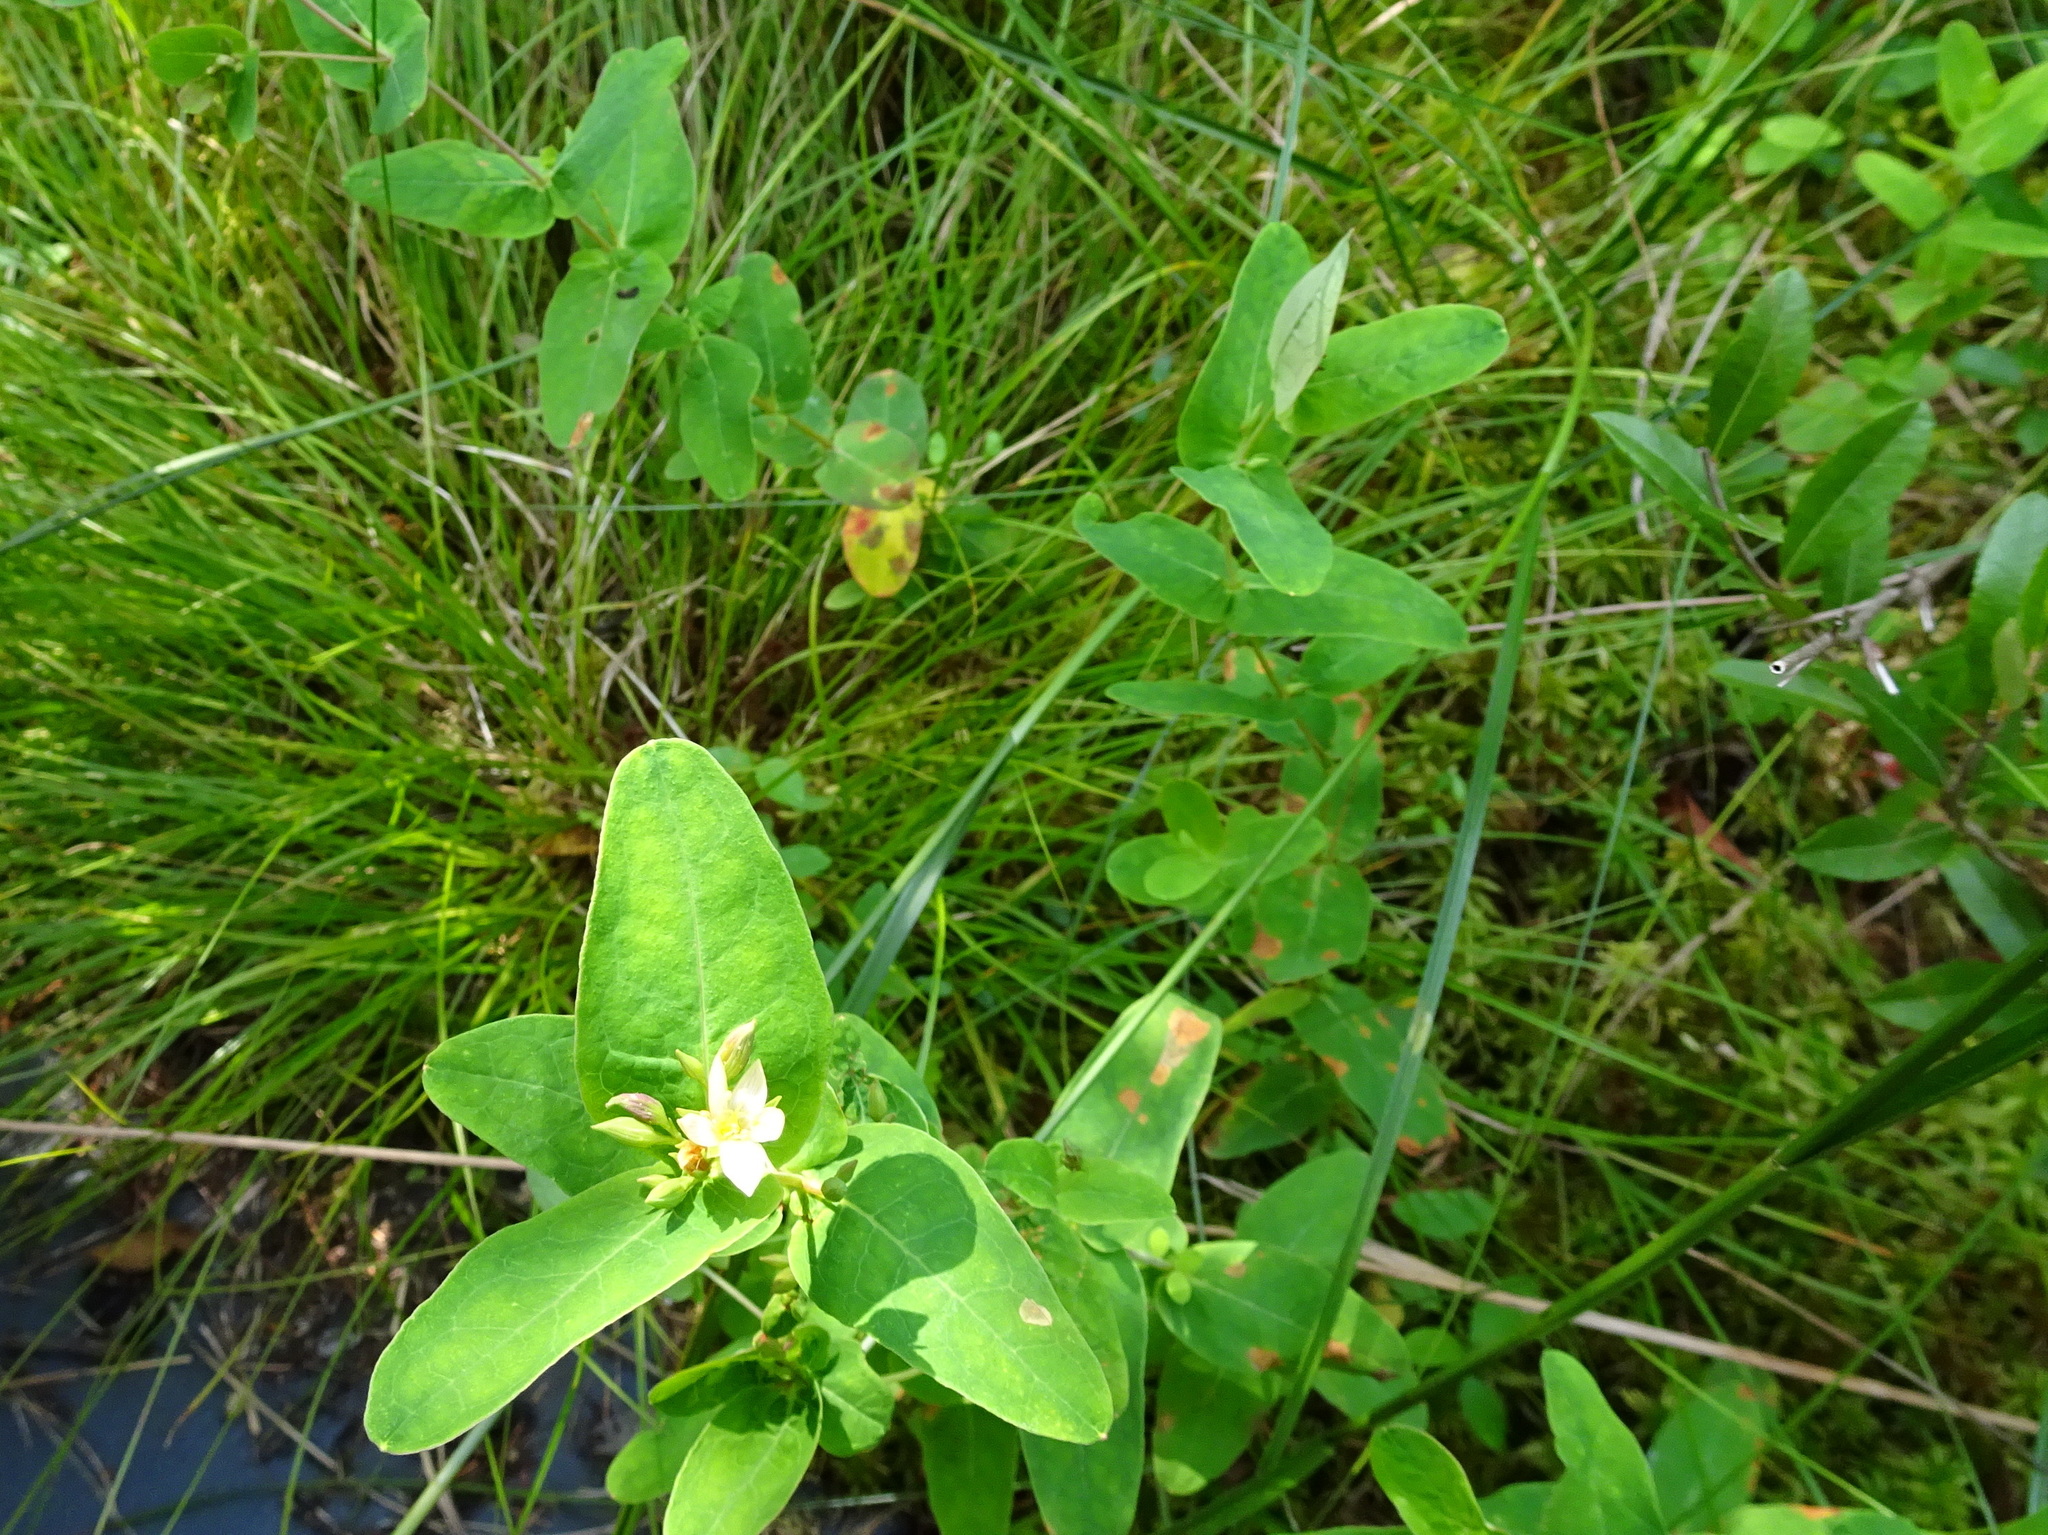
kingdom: Plantae
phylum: Tracheophyta
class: Magnoliopsida
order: Malpighiales
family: Hypericaceae
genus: Triadenum
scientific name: Triadenum virginicum
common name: Marsh st. john's-wort
